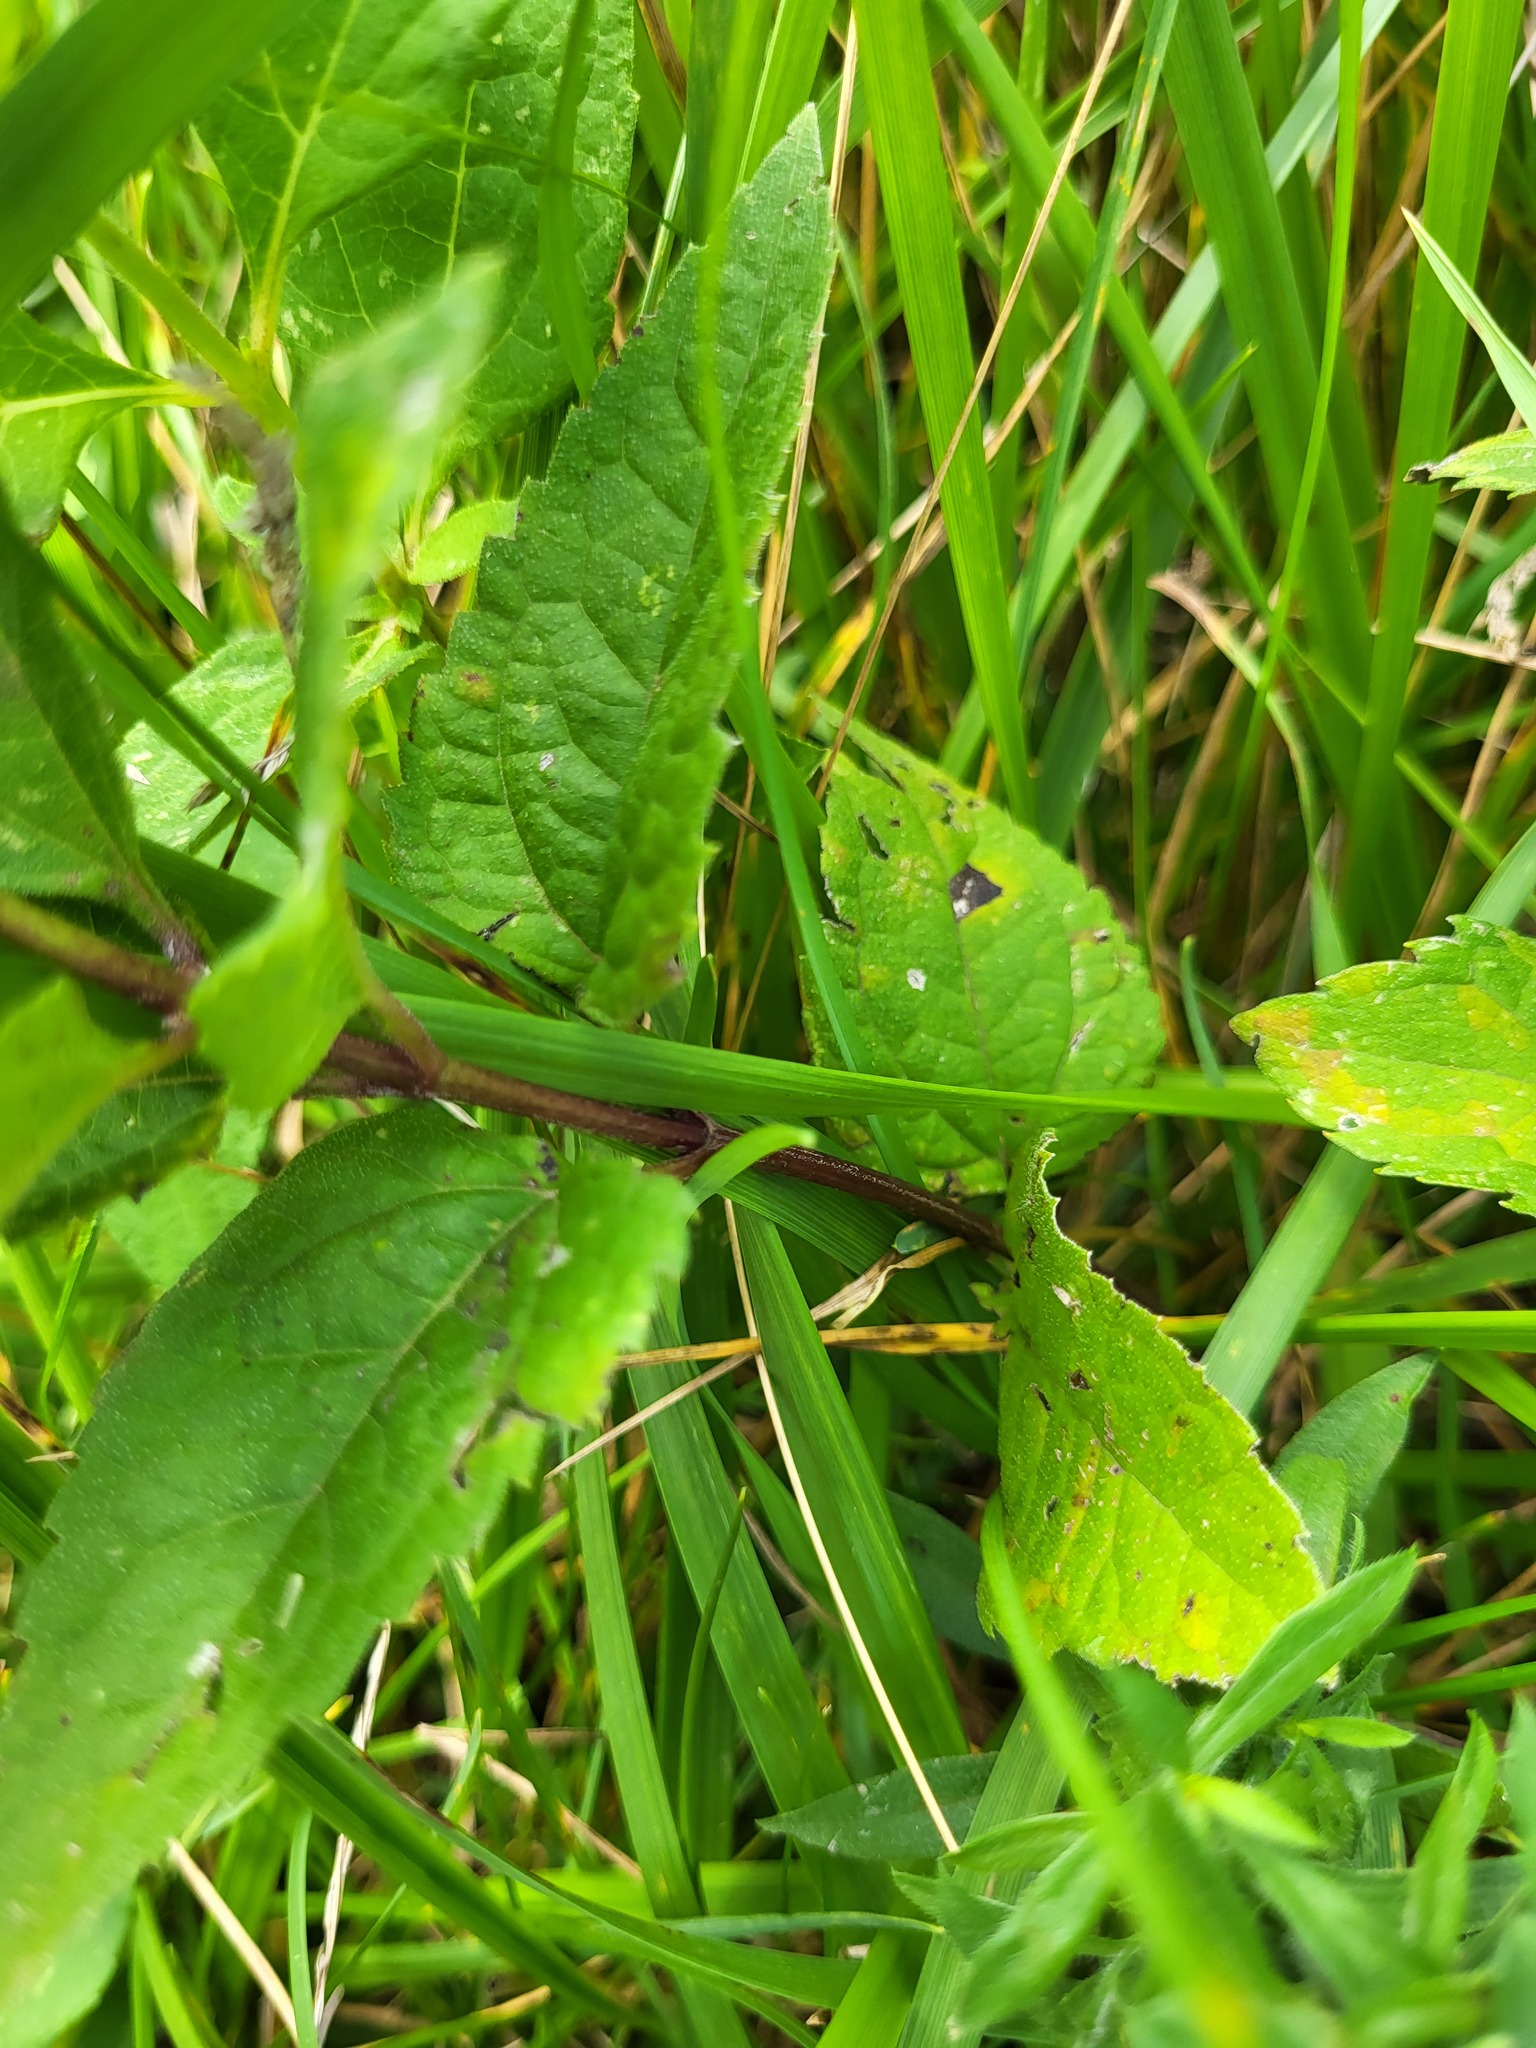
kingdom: Plantae
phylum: Tracheophyta
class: Magnoliopsida
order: Asterales
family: Asteraceae
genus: Heliopsis
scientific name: Heliopsis helianthoides
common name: False sunflower
